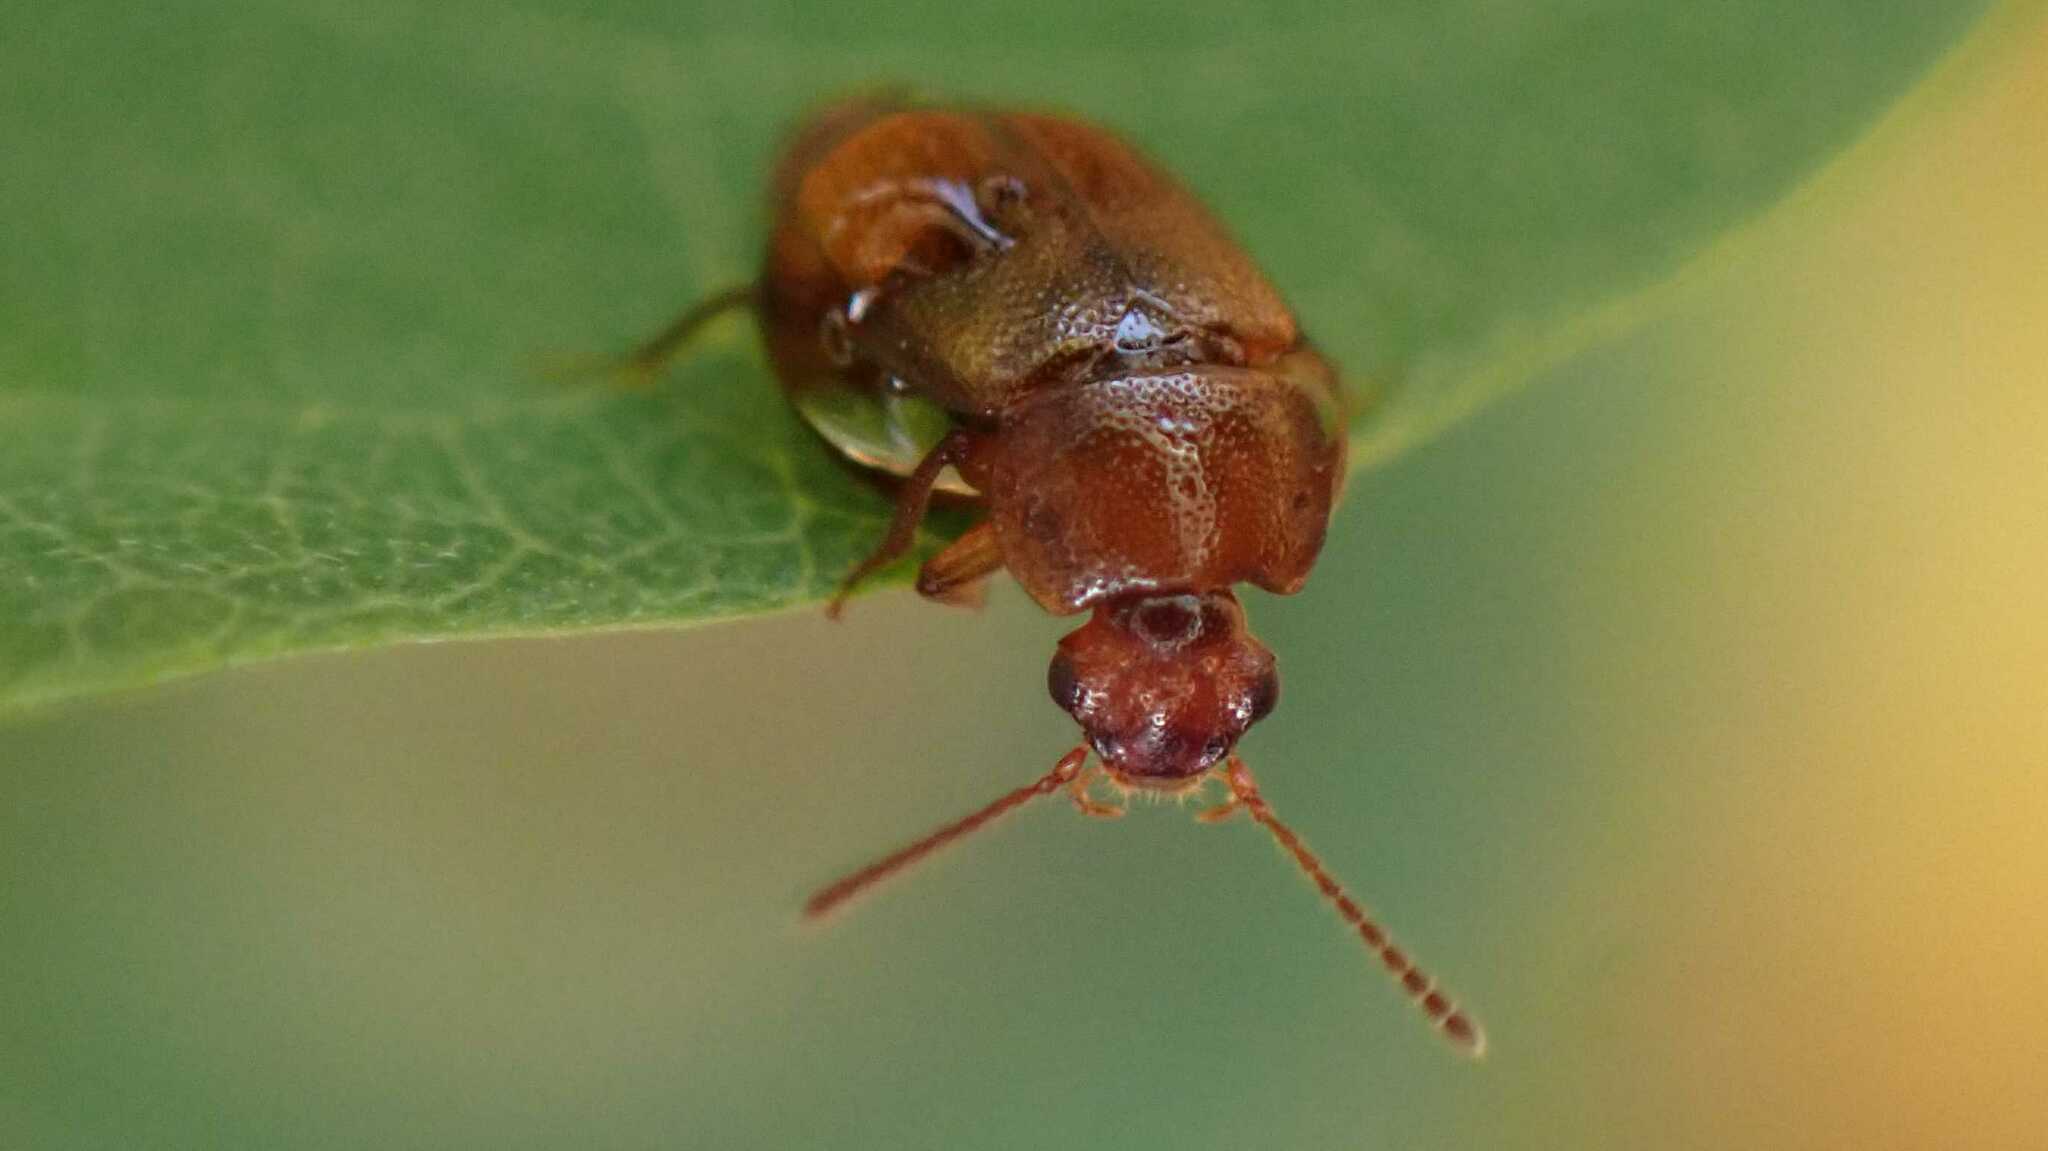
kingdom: Animalia
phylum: Arthropoda
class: Insecta
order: Coleoptera
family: Staphylinidae
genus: Anthobium
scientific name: Anthobium unicolor
